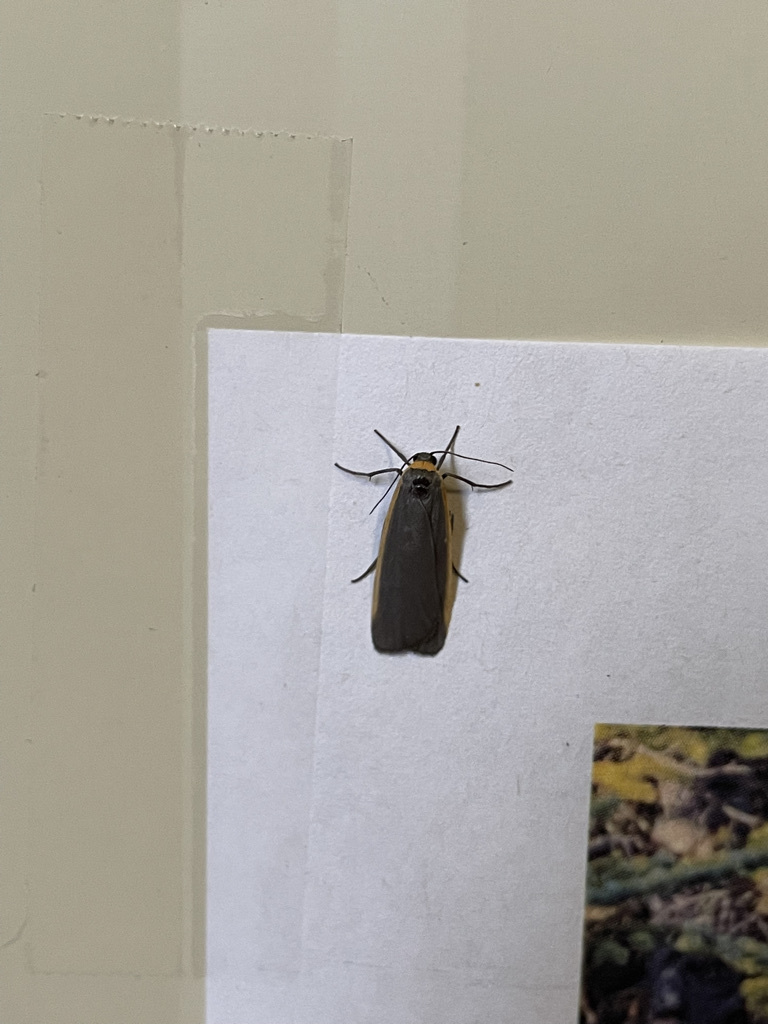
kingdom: Animalia
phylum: Arthropoda
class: Insecta
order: Lepidoptera
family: Erebidae
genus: Manulea
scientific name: Manulea bicolor
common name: Bicolored moth
